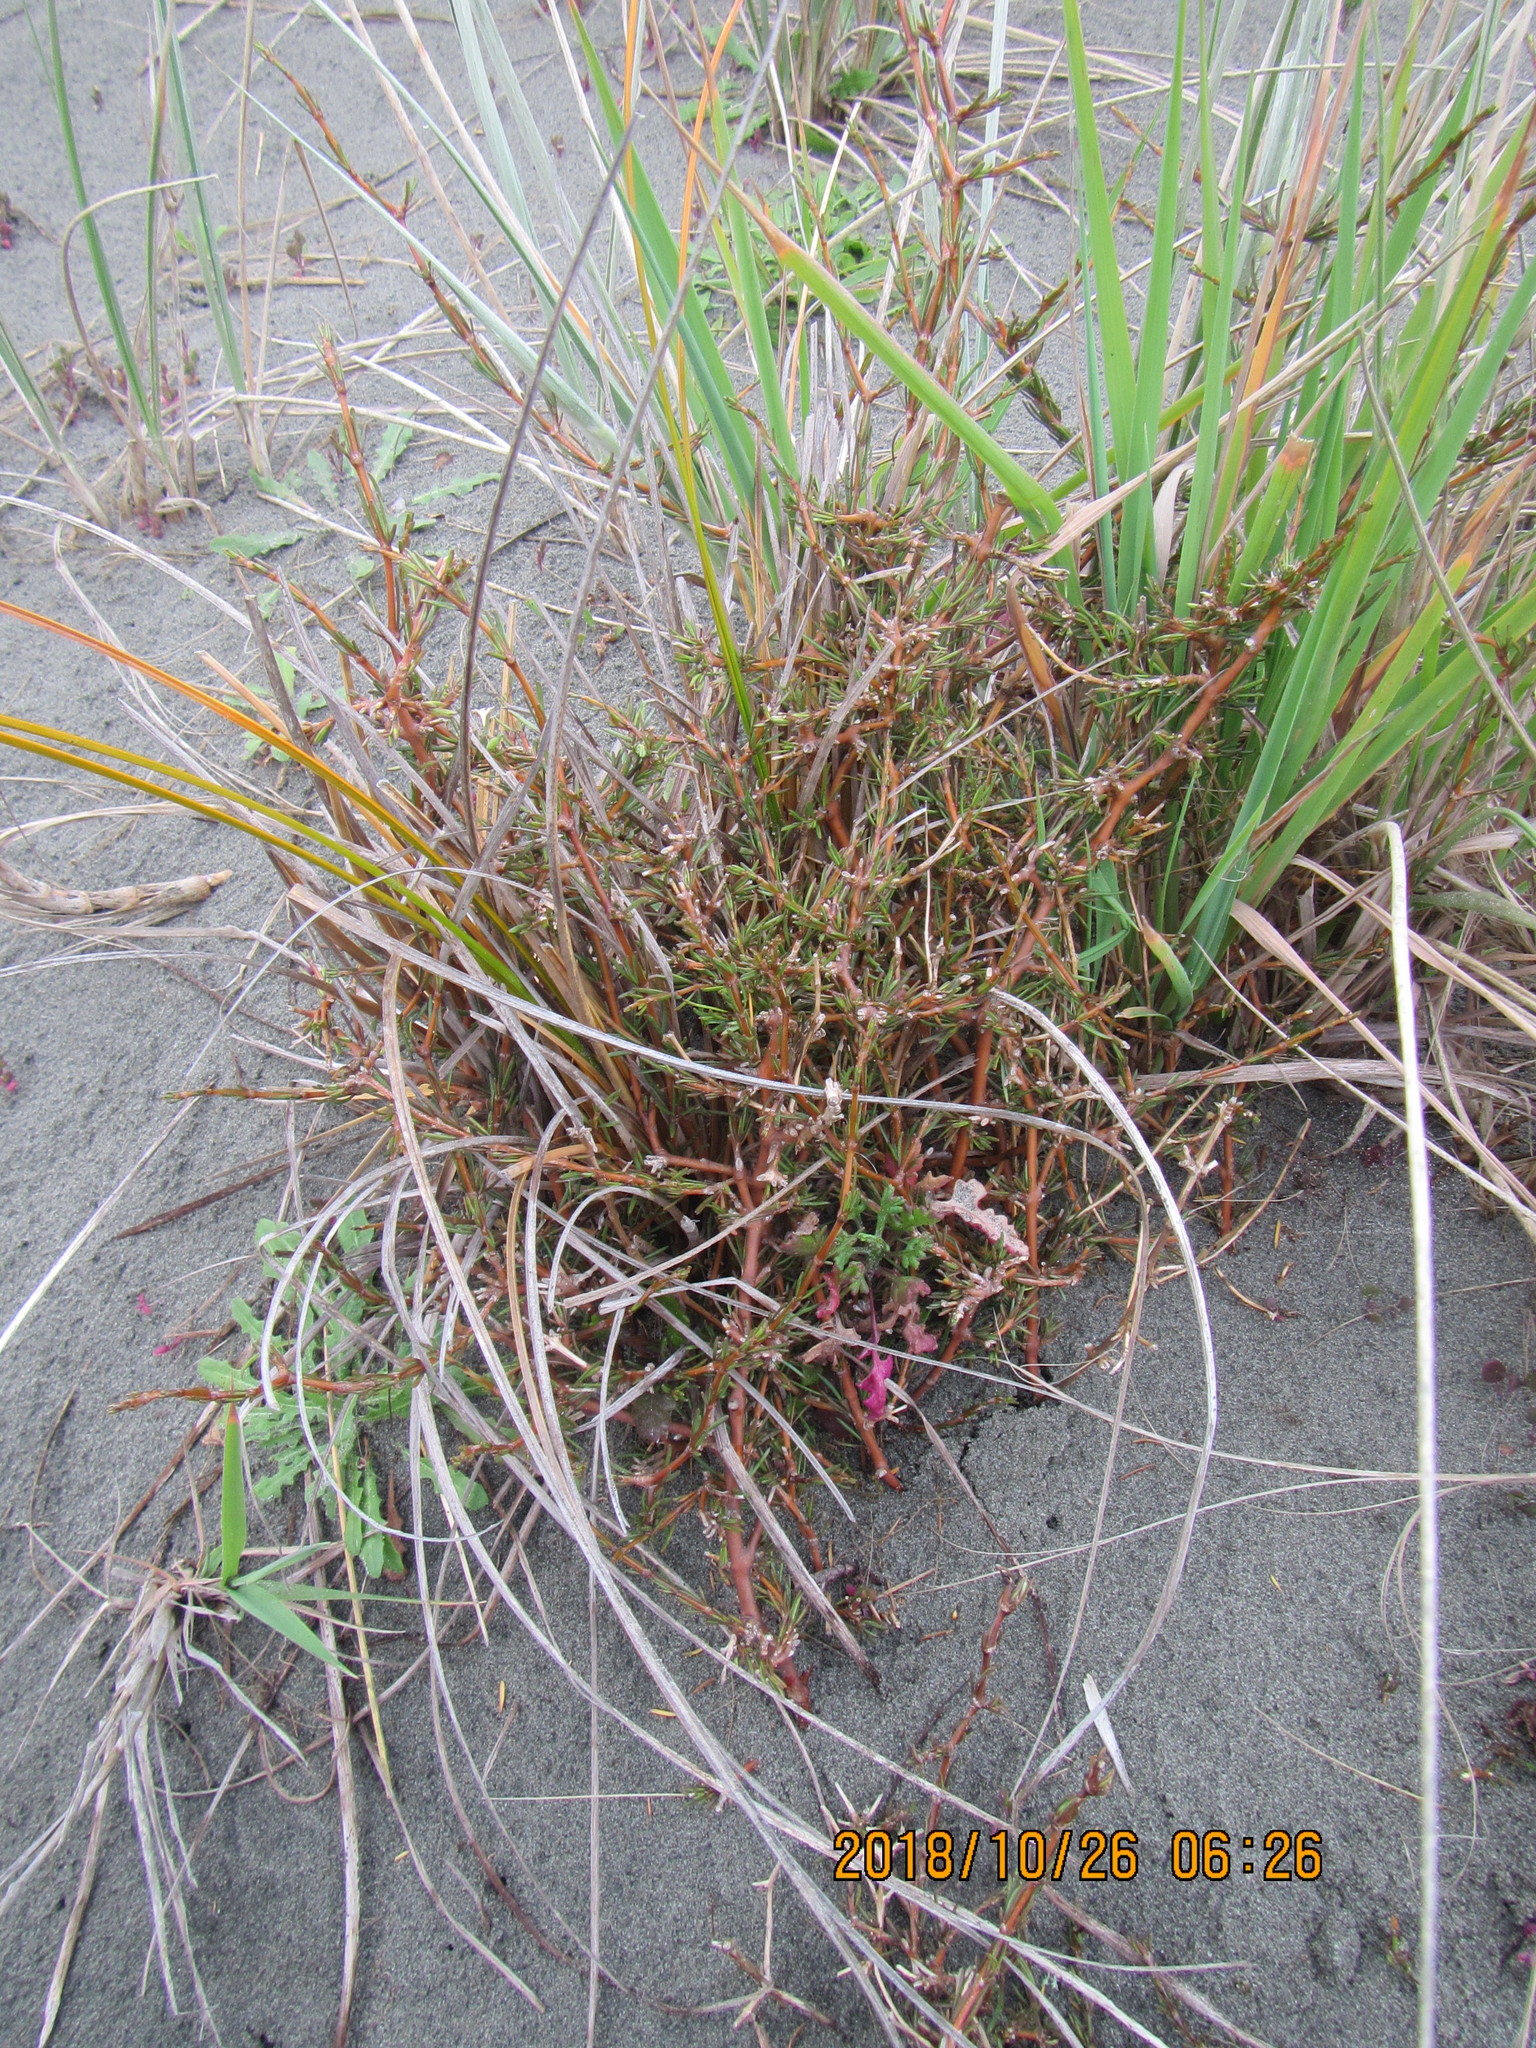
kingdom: Plantae
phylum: Tracheophyta
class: Magnoliopsida
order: Gentianales
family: Rubiaceae
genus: Coprosma
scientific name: Coprosma acerosa
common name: Sand coprosma
